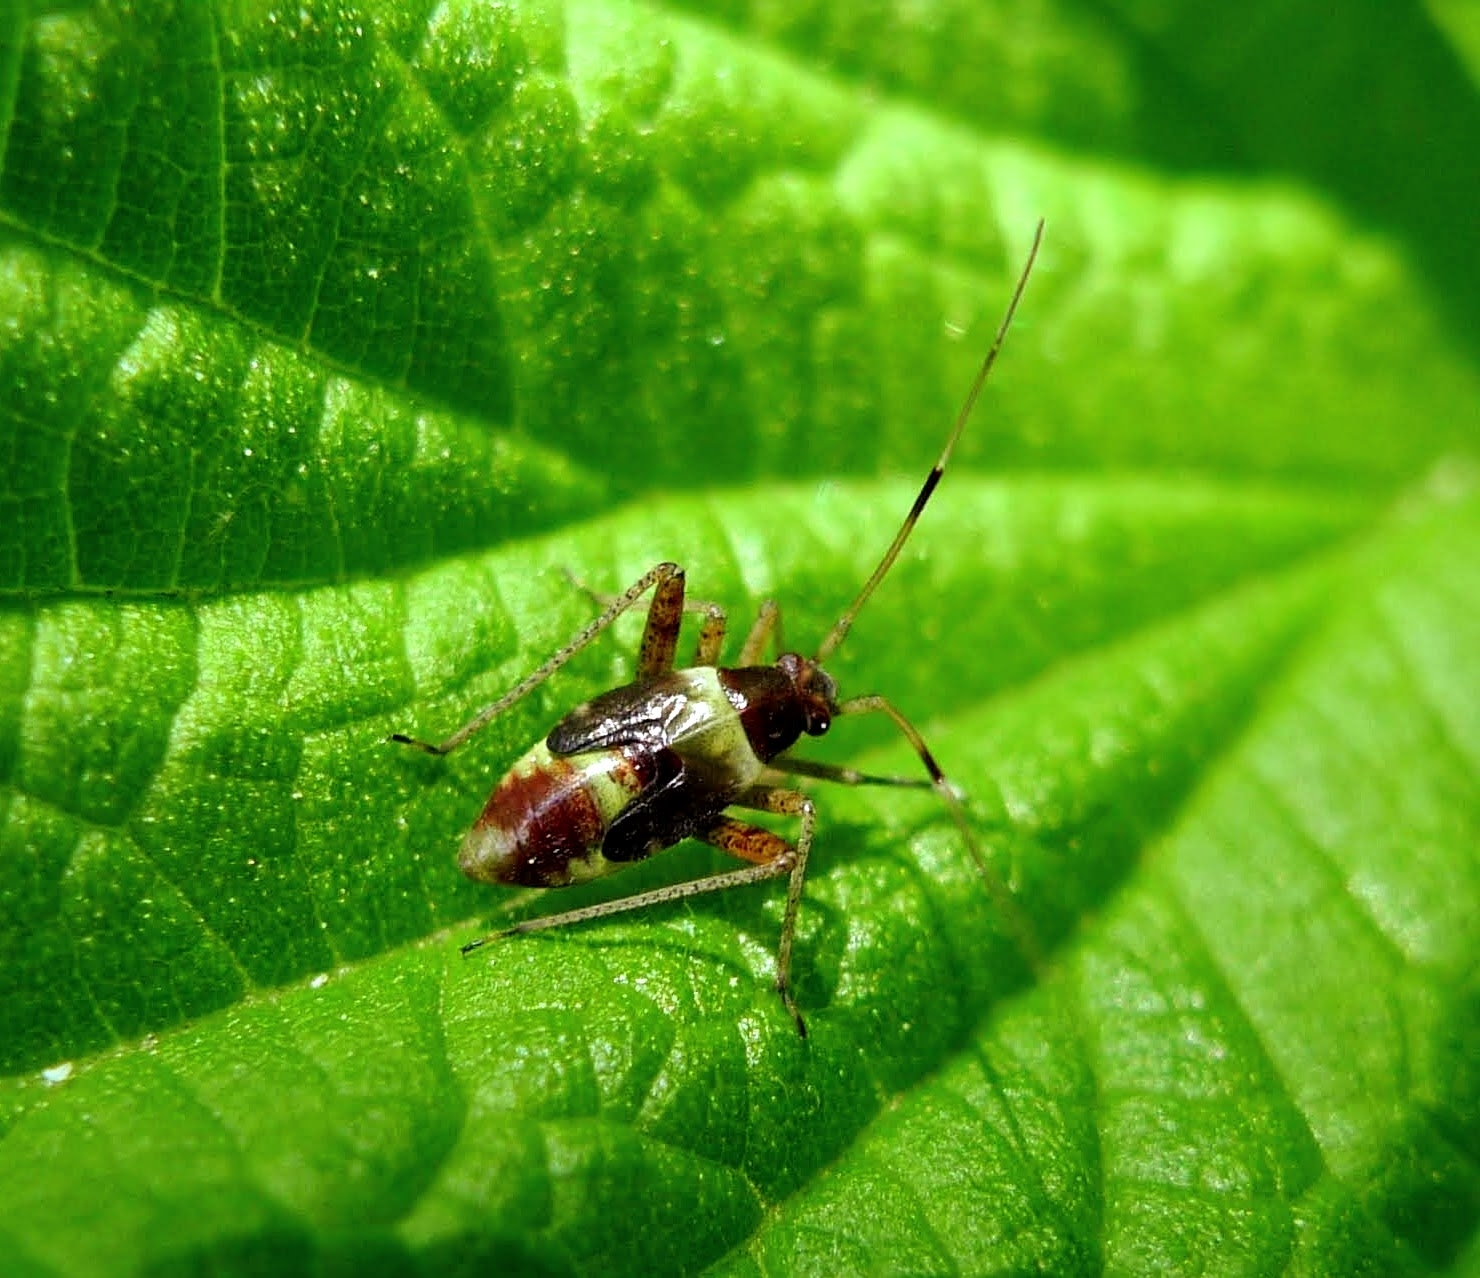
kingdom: Animalia
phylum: Arthropoda
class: Insecta
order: Hemiptera
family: Miridae
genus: Closterotomus
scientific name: Closterotomus fulvomaculatus
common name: Spotted plant bug
